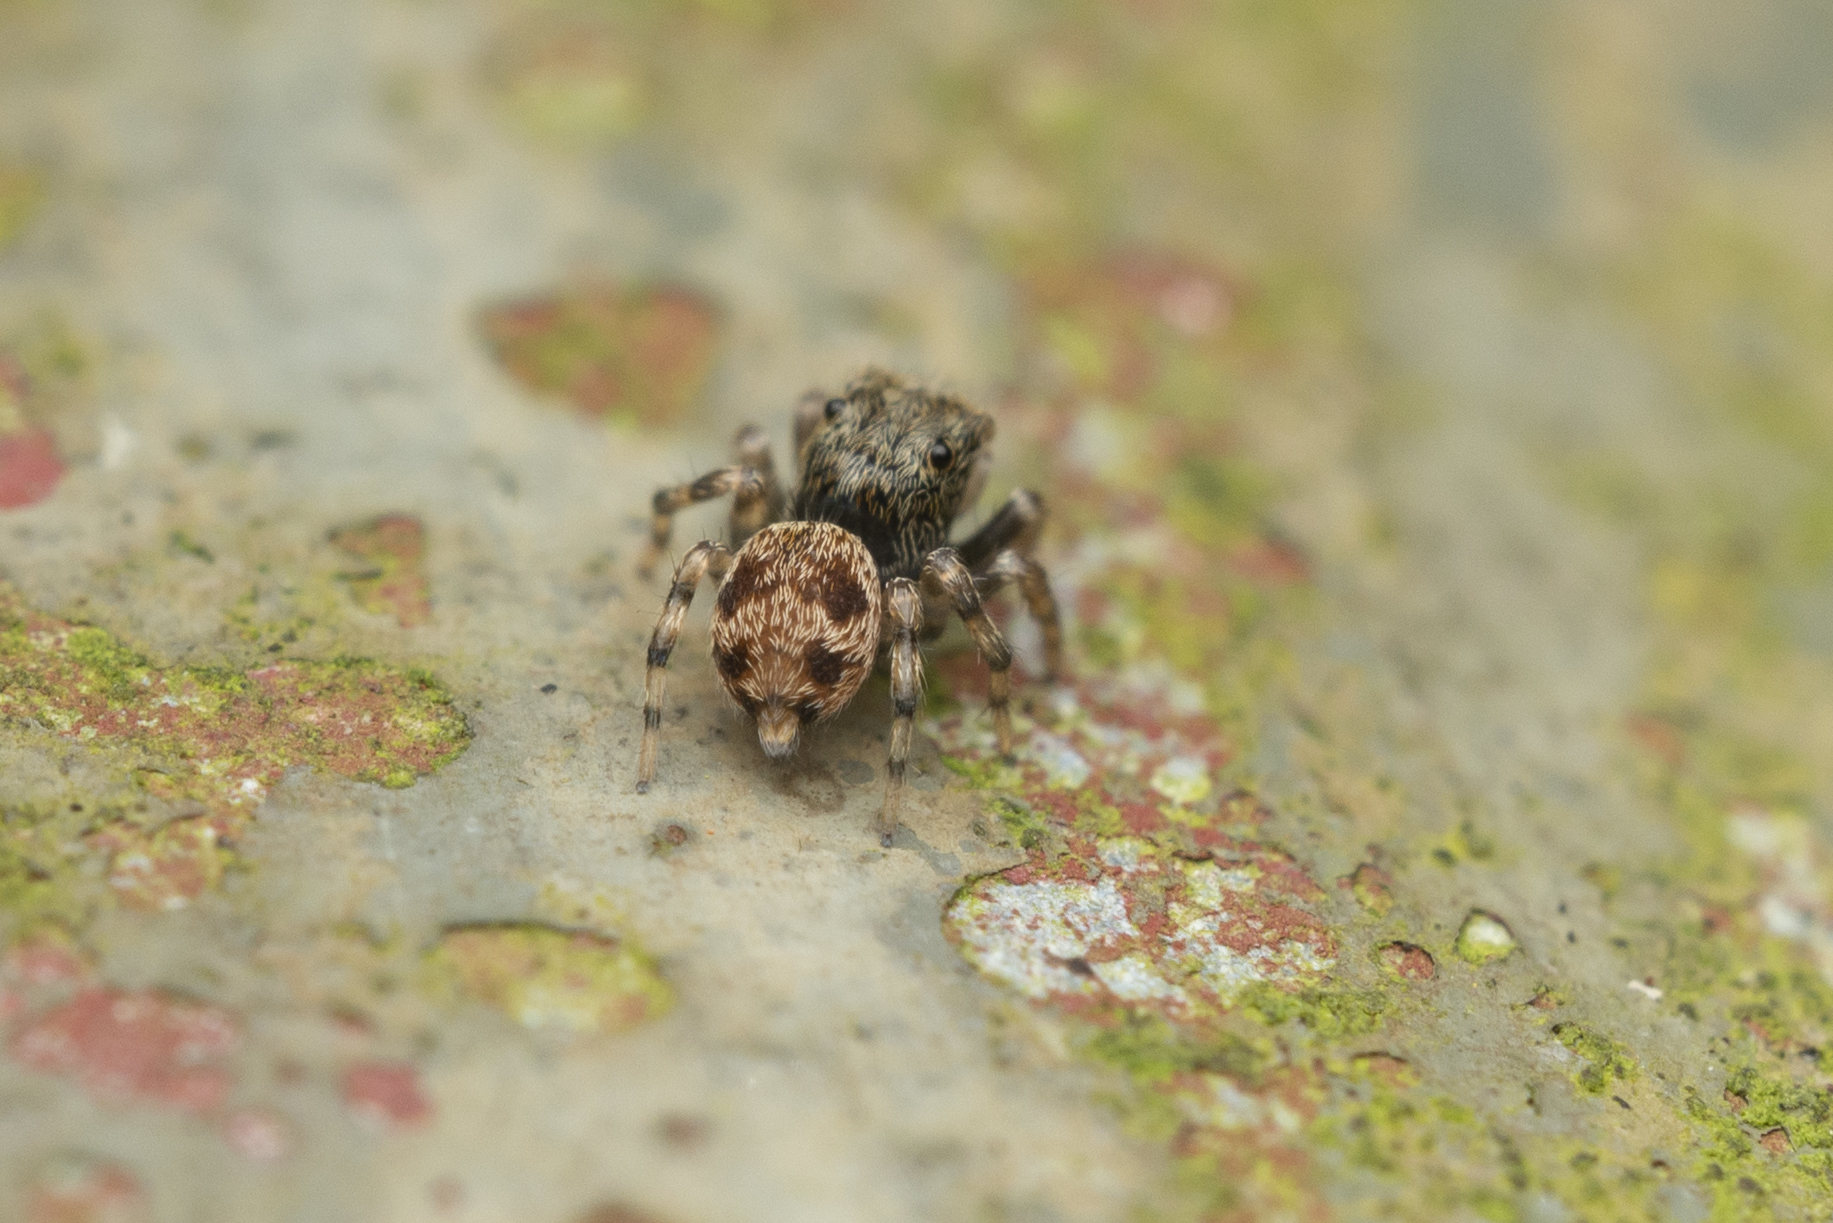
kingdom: Animalia
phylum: Arthropoda
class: Arachnida
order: Araneae
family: Salticidae
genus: Habrocestum
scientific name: Habrocestum hongkongiense
